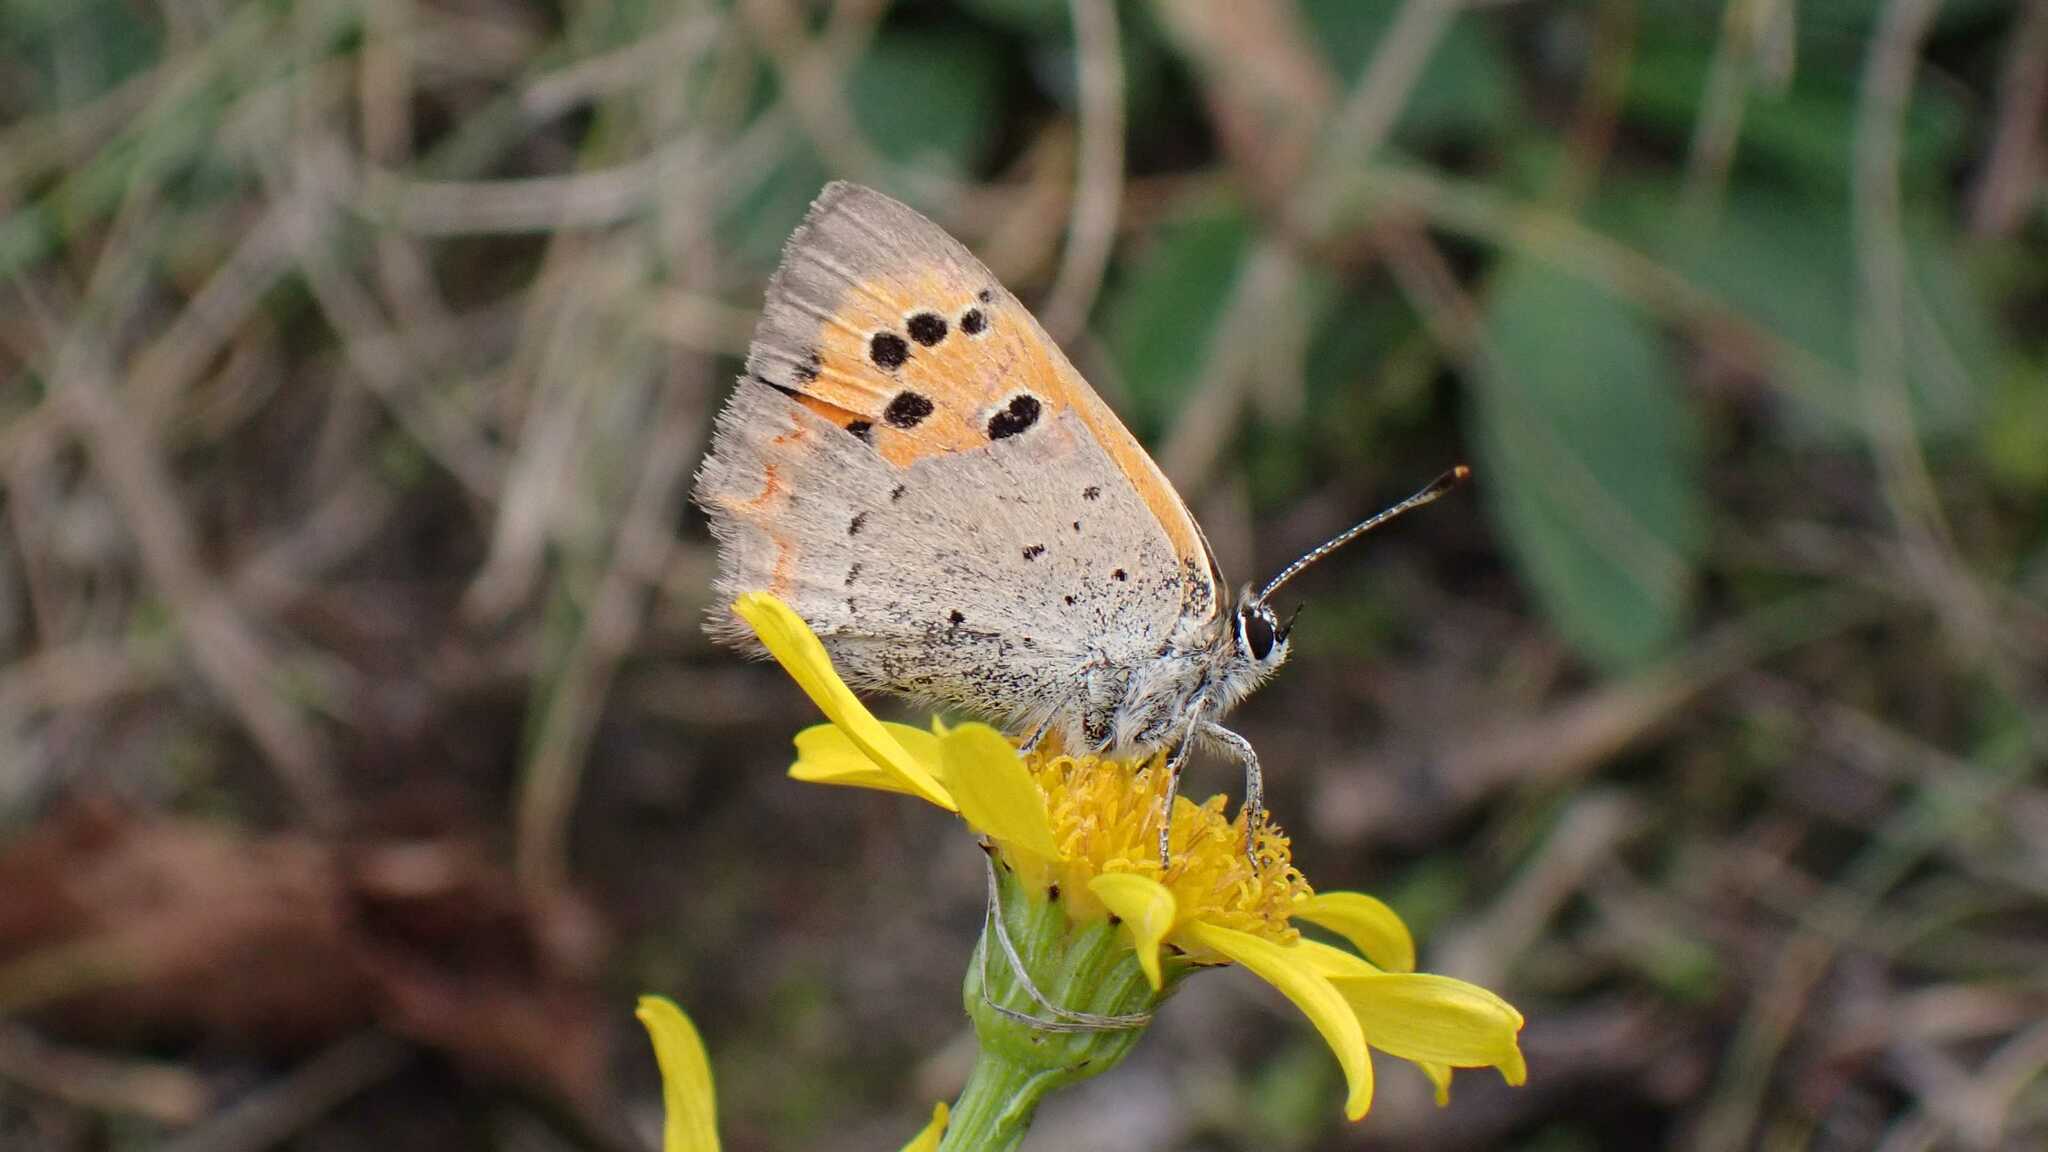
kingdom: Animalia
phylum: Arthropoda
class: Insecta
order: Lepidoptera
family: Lycaenidae
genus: Lycaena
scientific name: Lycaena phlaeas
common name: Small copper
